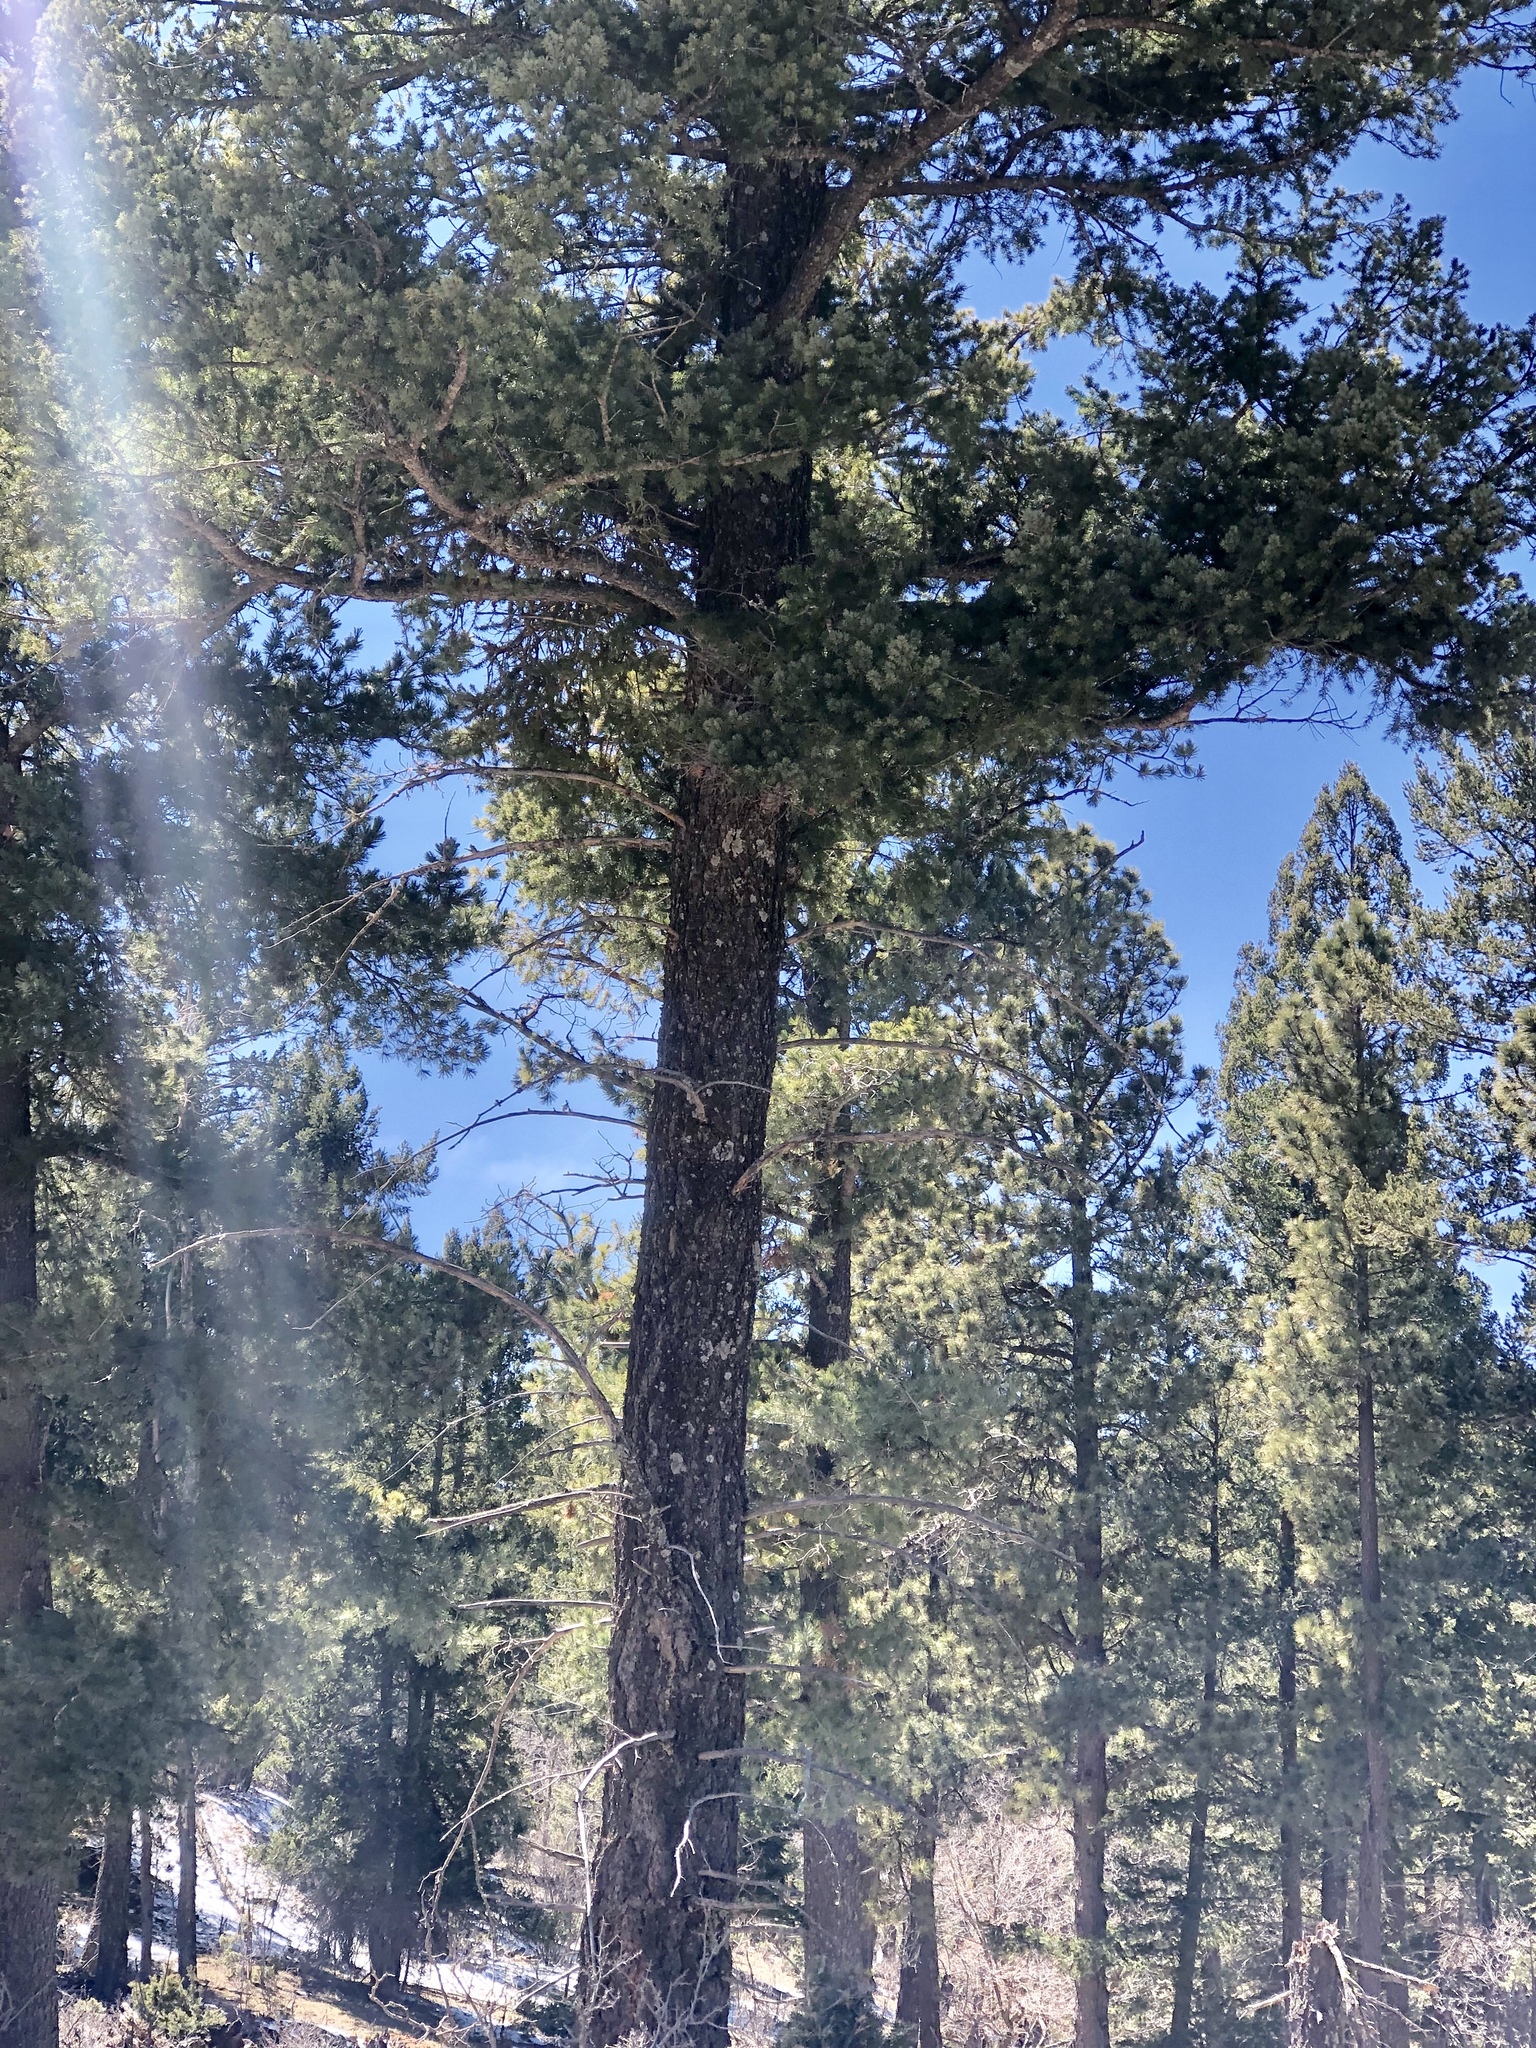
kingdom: Plantae
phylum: Tracheophyta
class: Pinopsida
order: Pinales
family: Pinaceae
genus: Pseudotsuga
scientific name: Pseudotsuga menziesii
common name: Douglas fir
